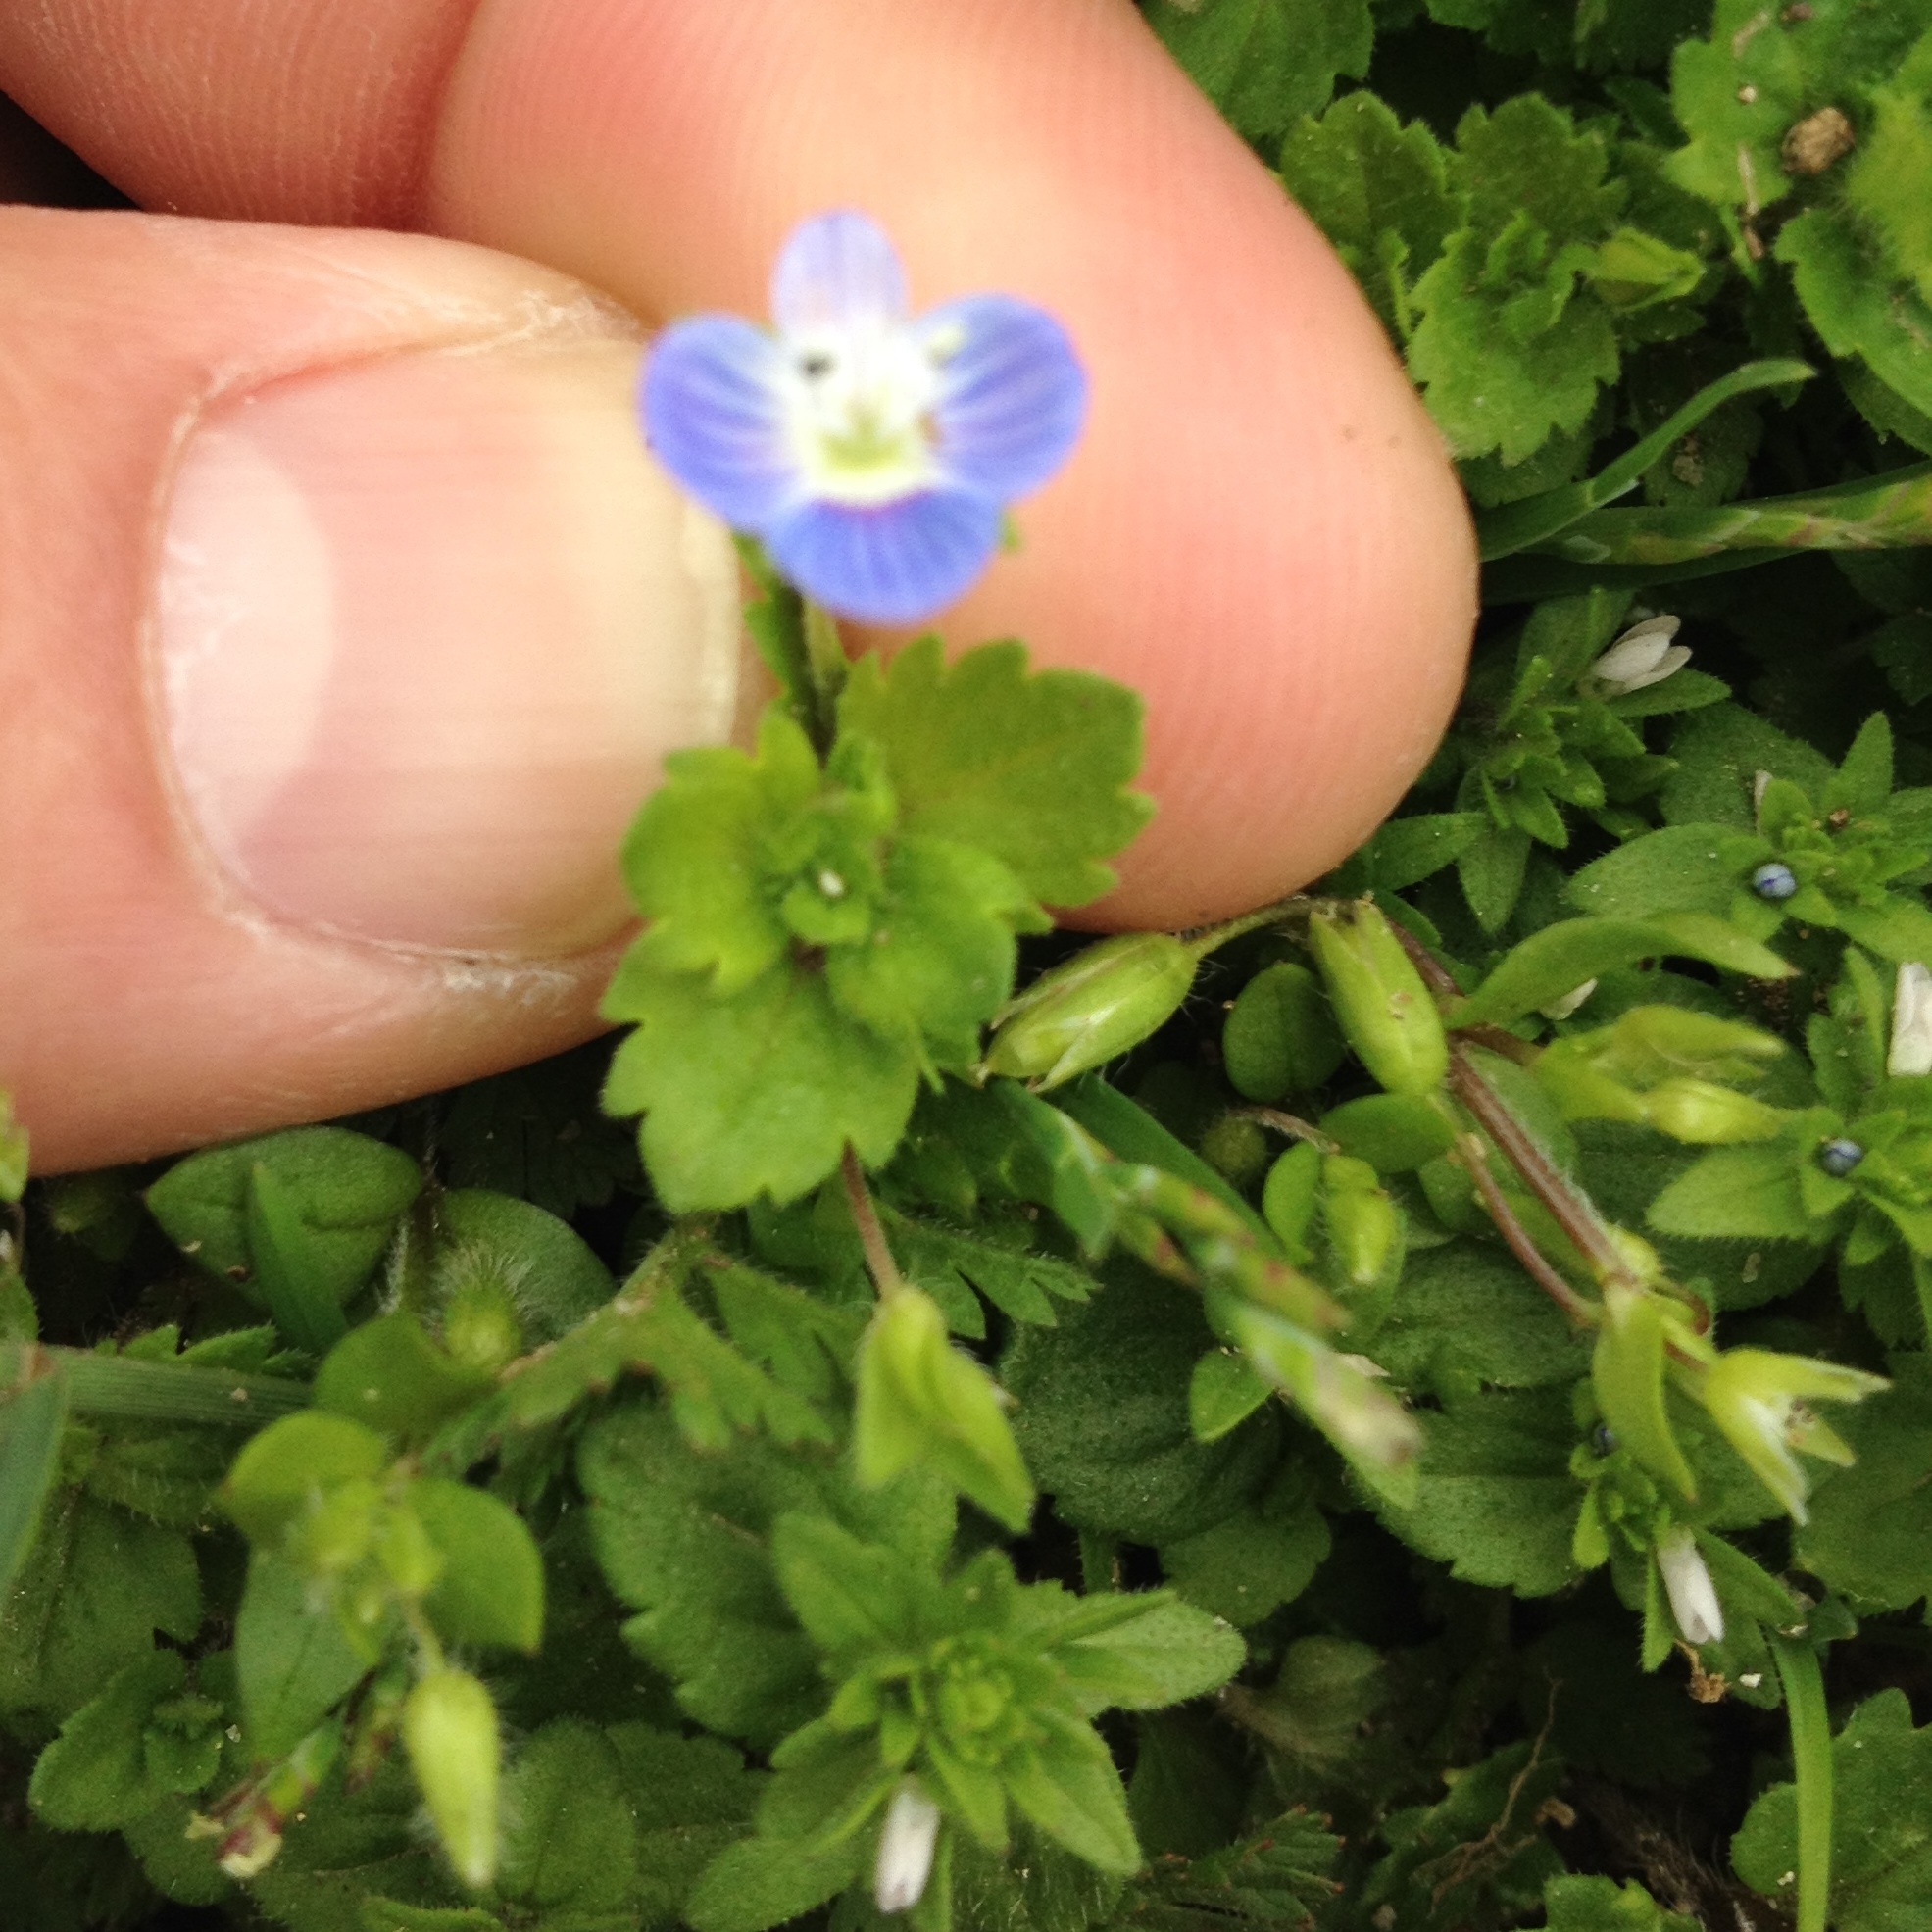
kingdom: Plantae
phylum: Tracheophyta
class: Magnoliopsida
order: Lamiales
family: Plantaginaceae
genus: Veronica
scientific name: Veronica persica
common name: Common field-speedwell
